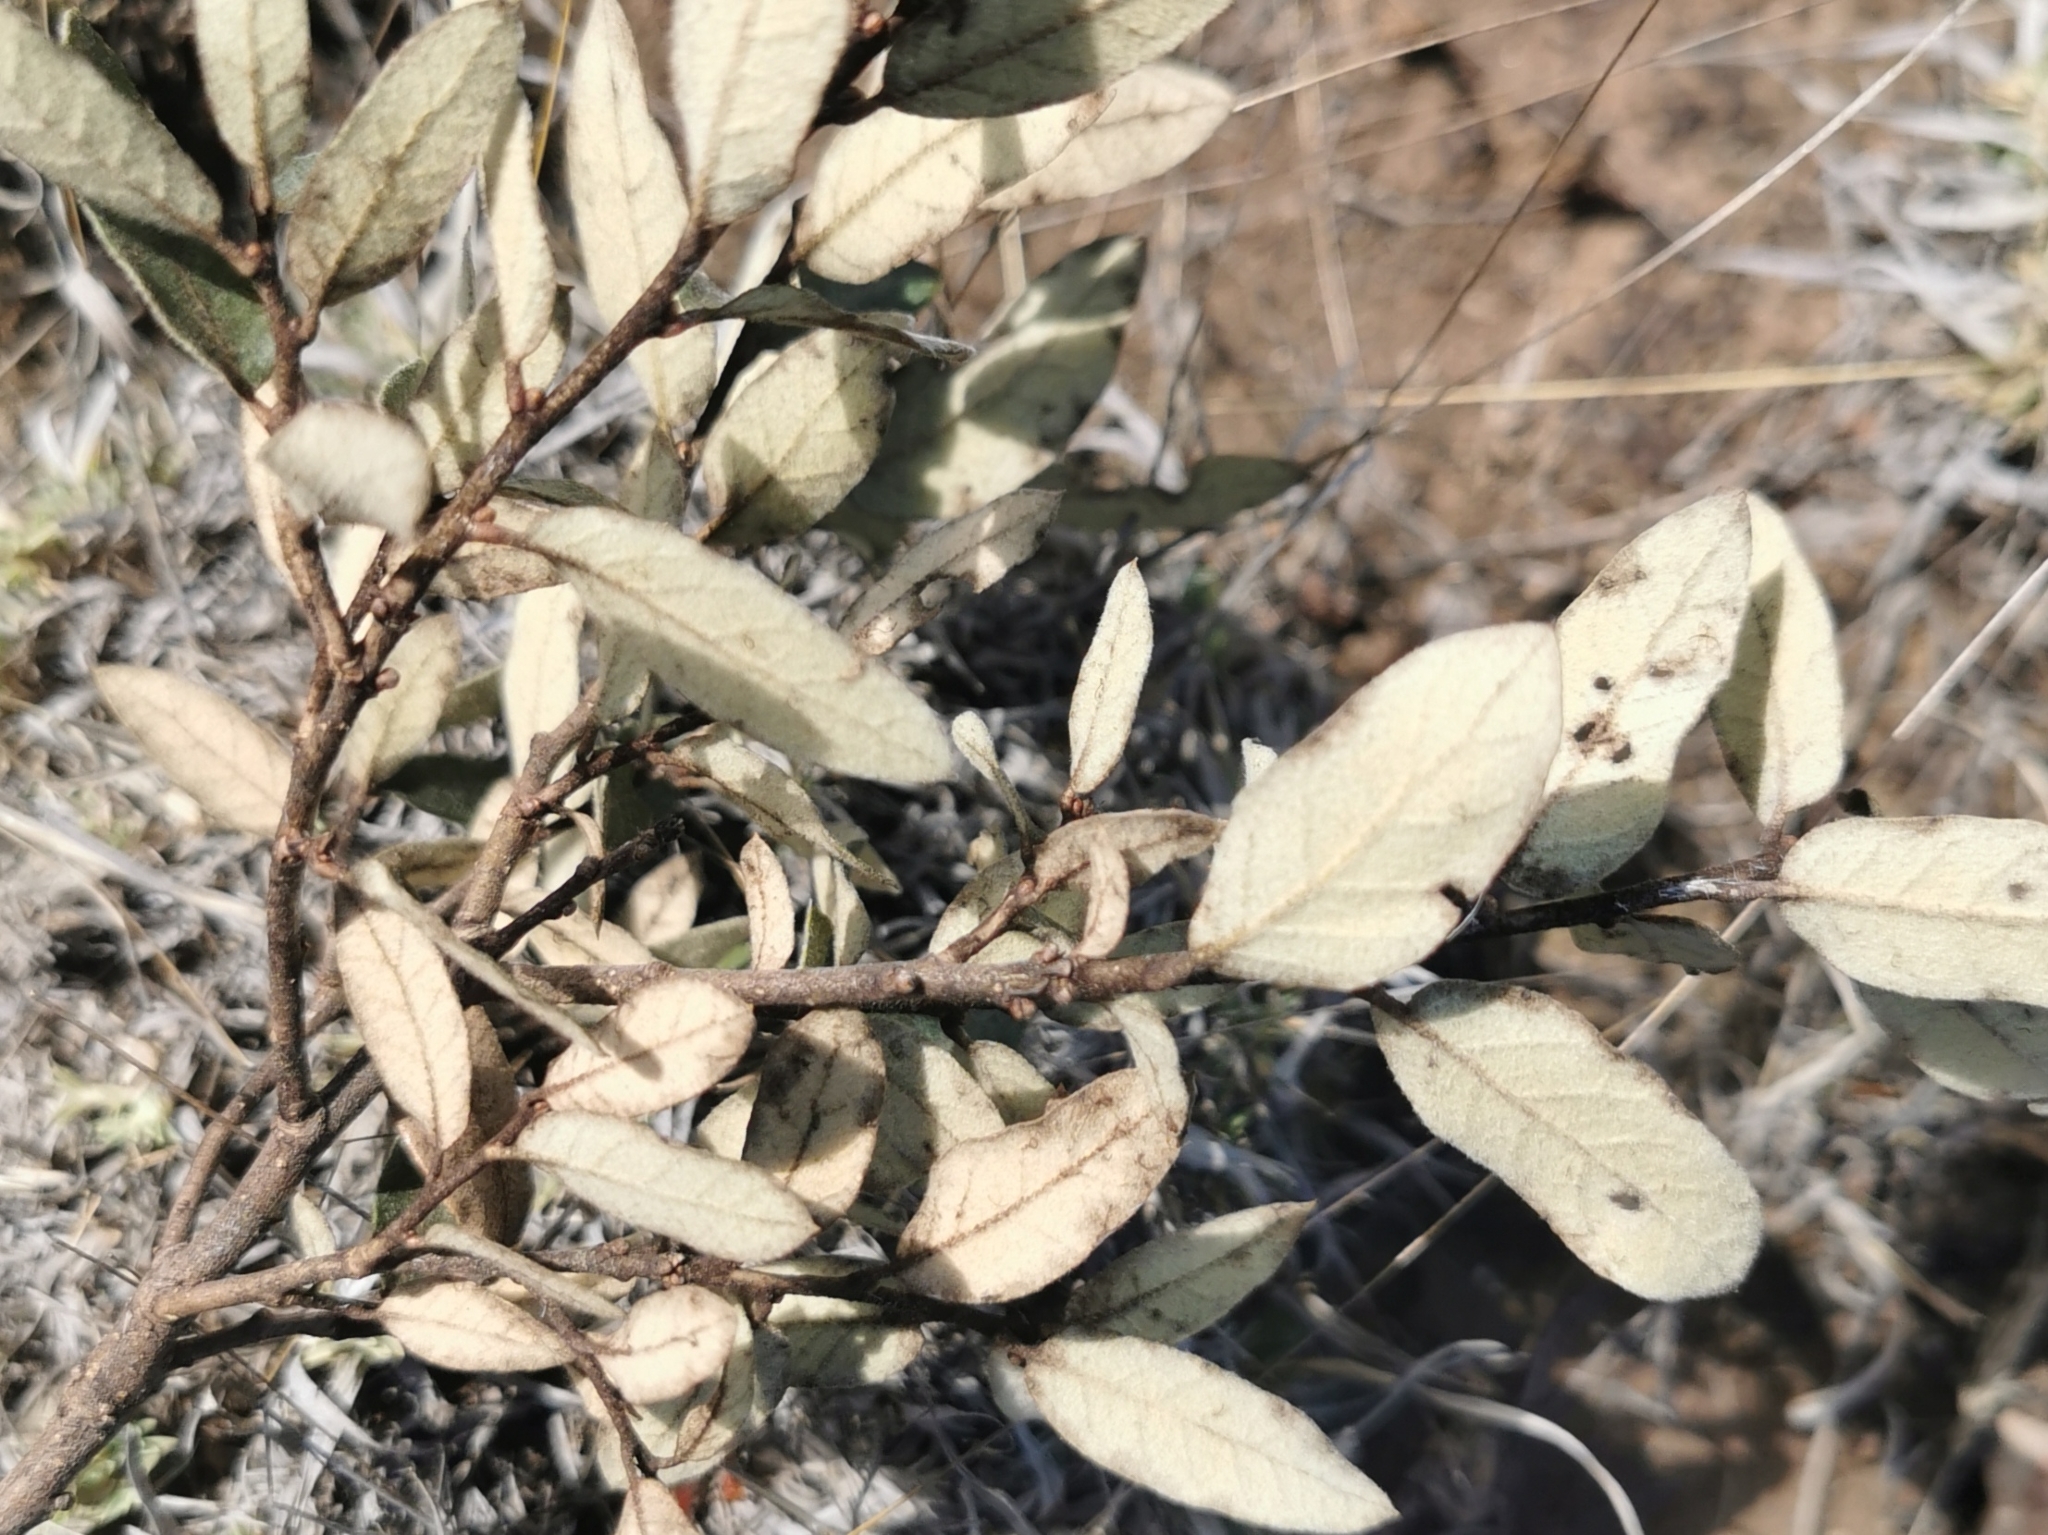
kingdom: Plantae
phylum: Tracheophyta
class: Magnoliopsida
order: Fagales
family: Fagaceae
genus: Quercus
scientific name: Quercus striatula
